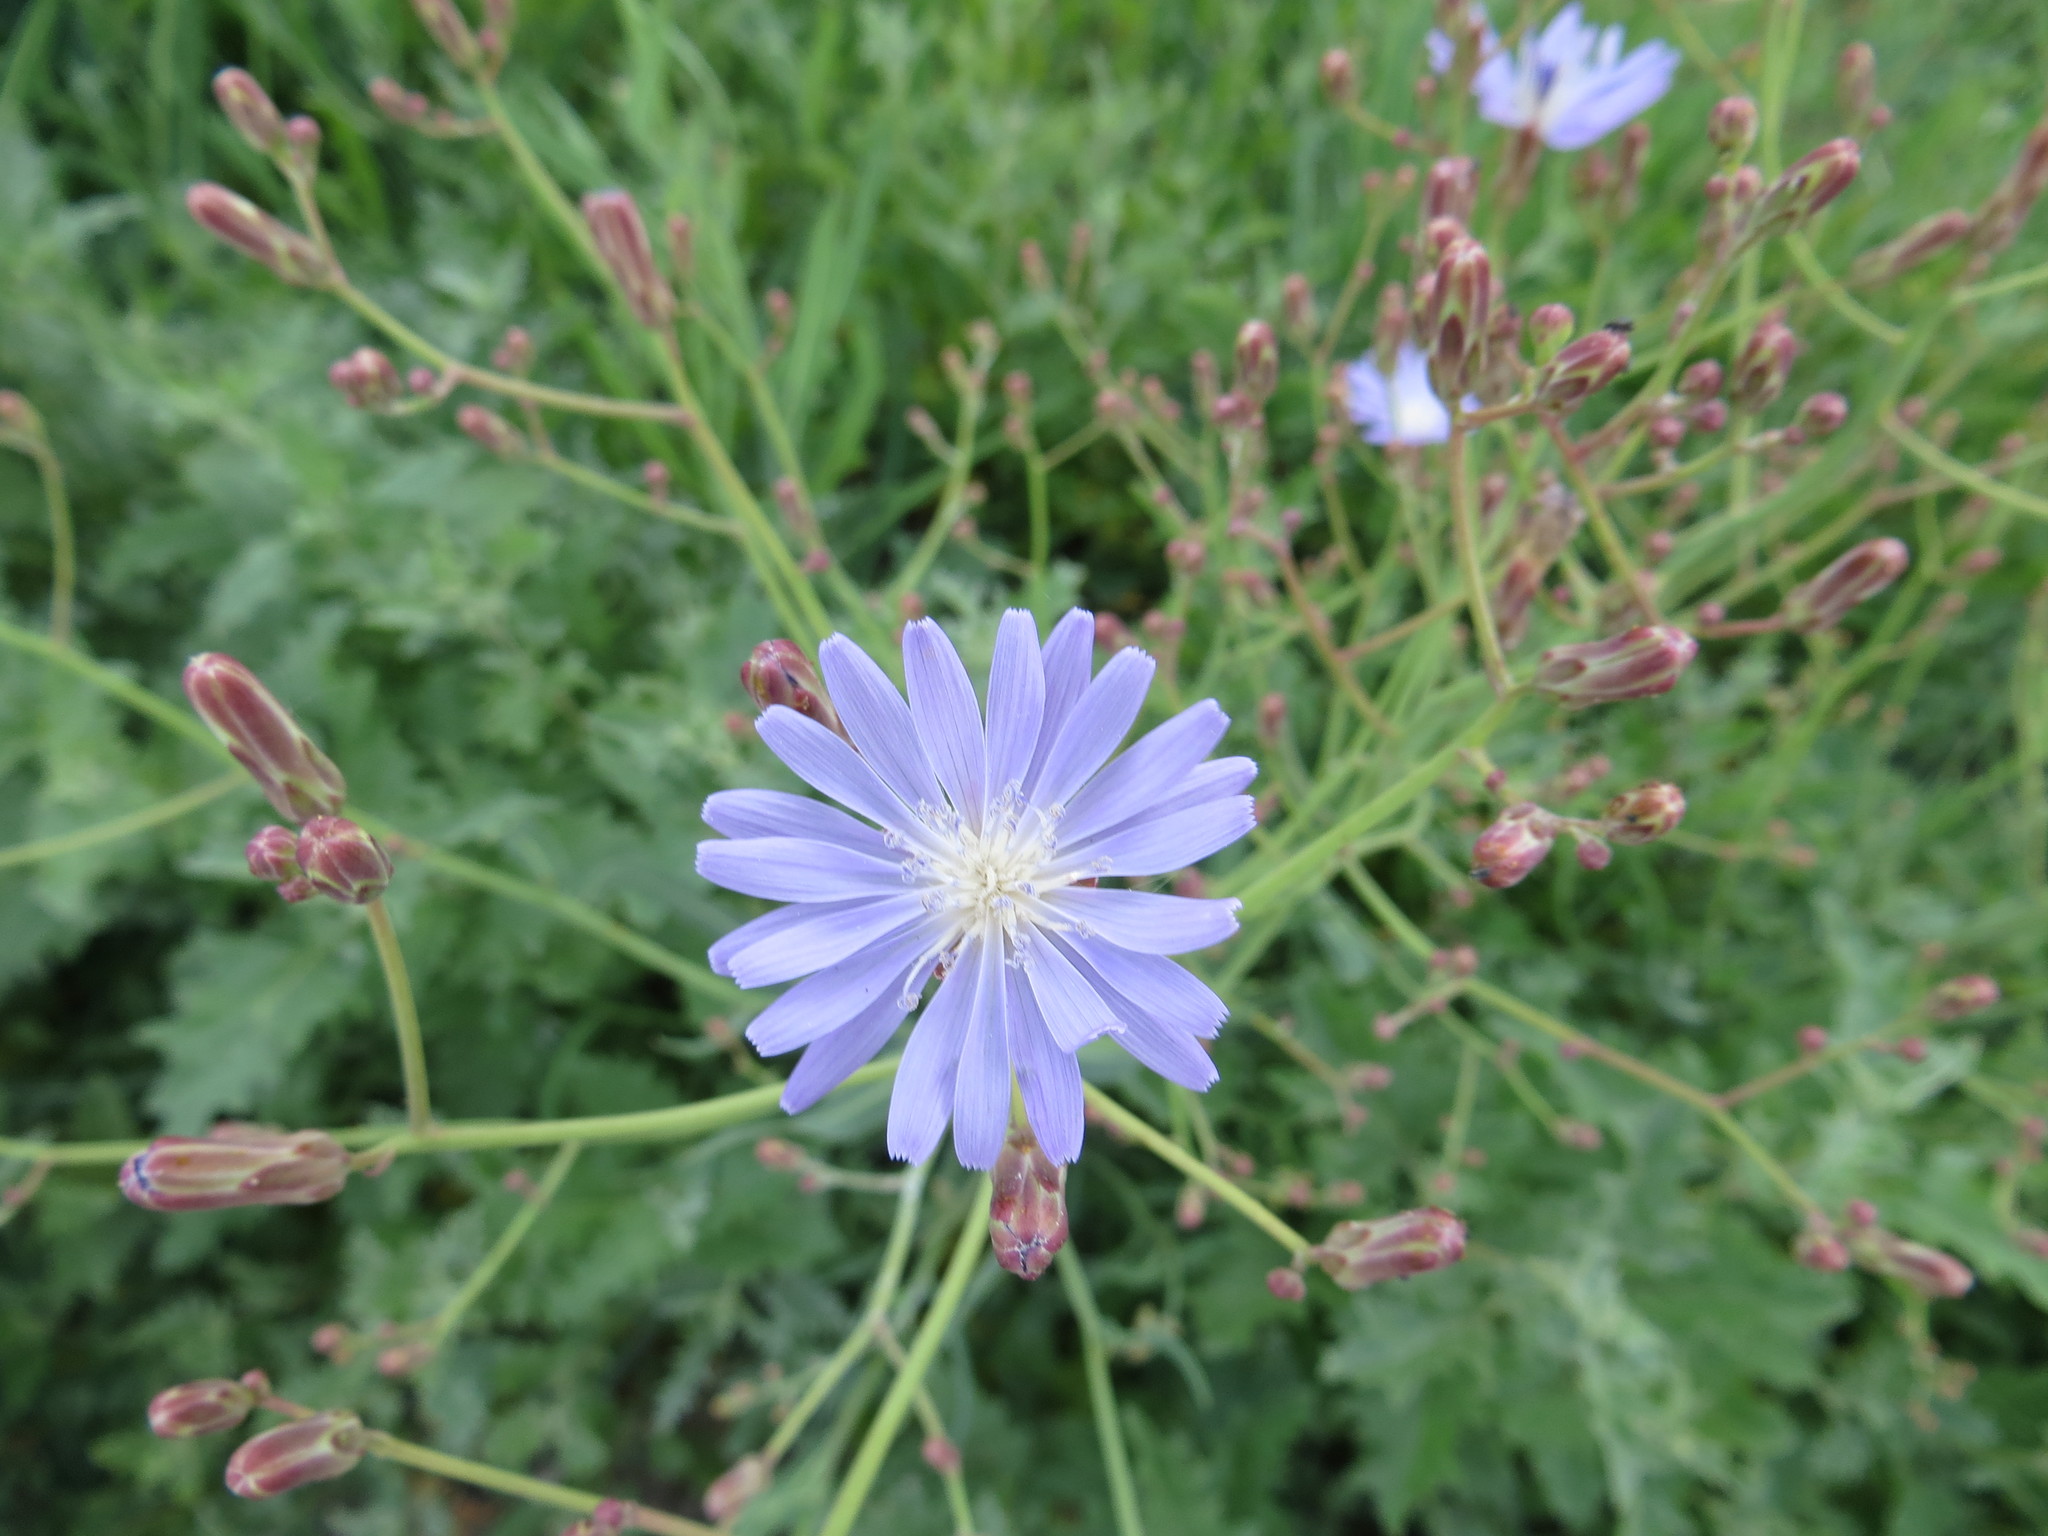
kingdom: Plantae
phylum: Tracheophyta
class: Magnoliopsida
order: Asterales
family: Asteraceae
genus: Lactuca
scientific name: Lactuca tatarica
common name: Blue lettuce
